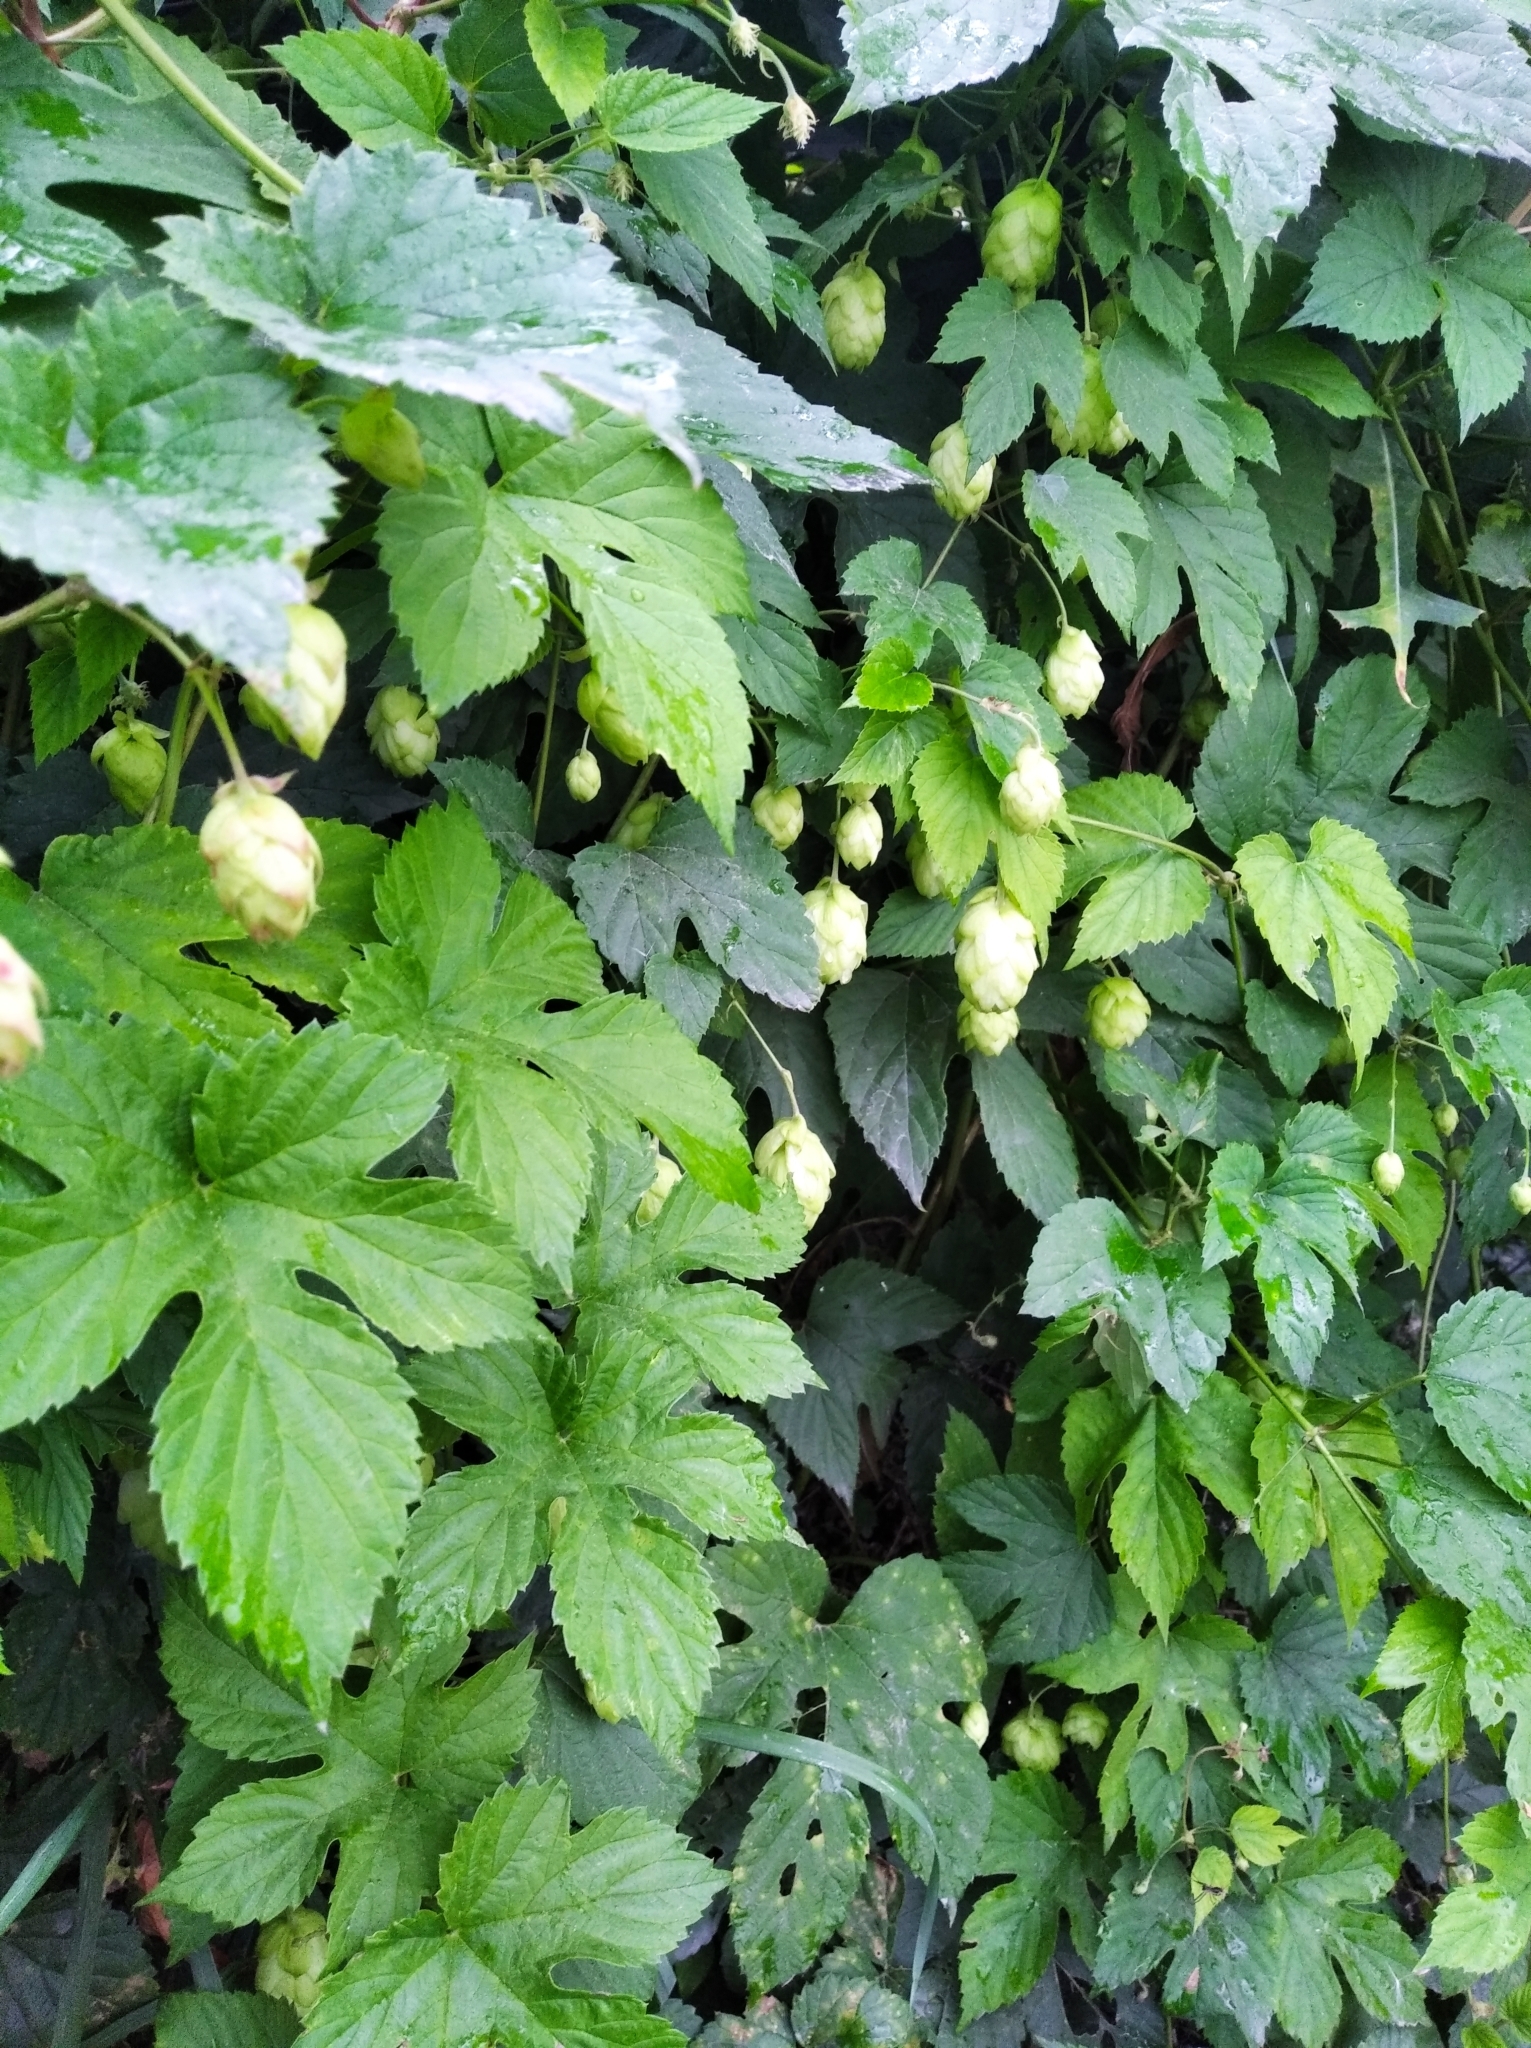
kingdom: Plantae
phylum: Tracheophyta
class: Magnoliopsida
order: Rosales
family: Cannabaceae
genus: Humulus
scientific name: Humulus lupulus
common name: Hop
